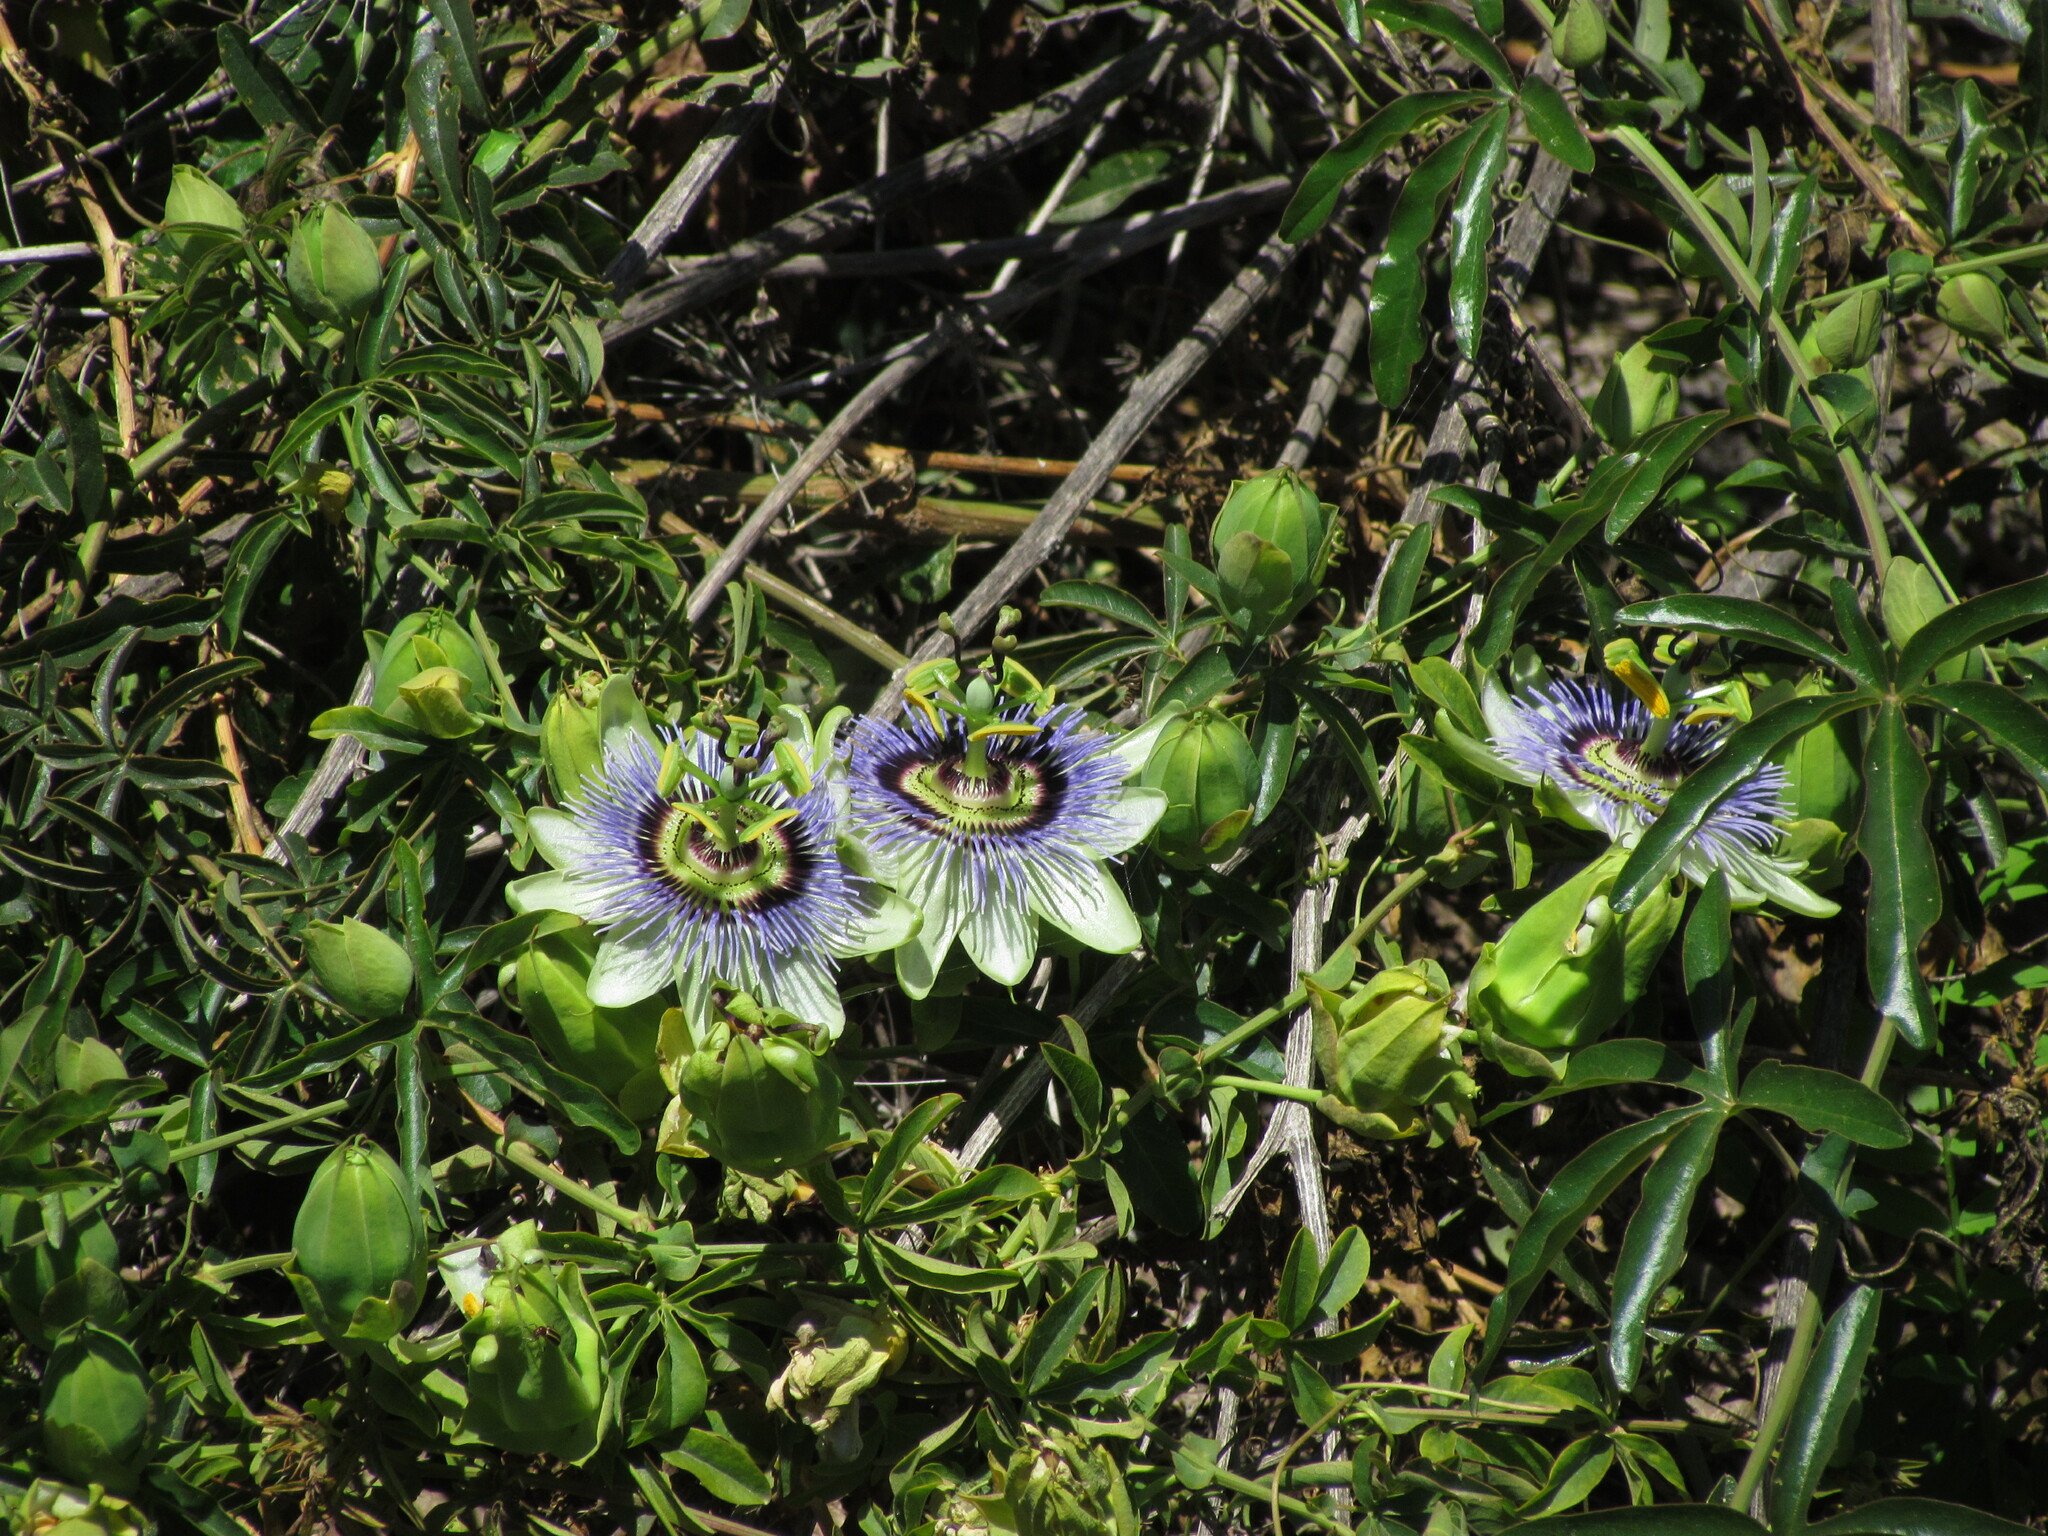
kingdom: Plantae
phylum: Tracheophyta
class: Magnoliopsida
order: Malpighiales
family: Passifloraceae
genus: Passiflora
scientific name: Passiflora caerulea
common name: Blue passionflower
